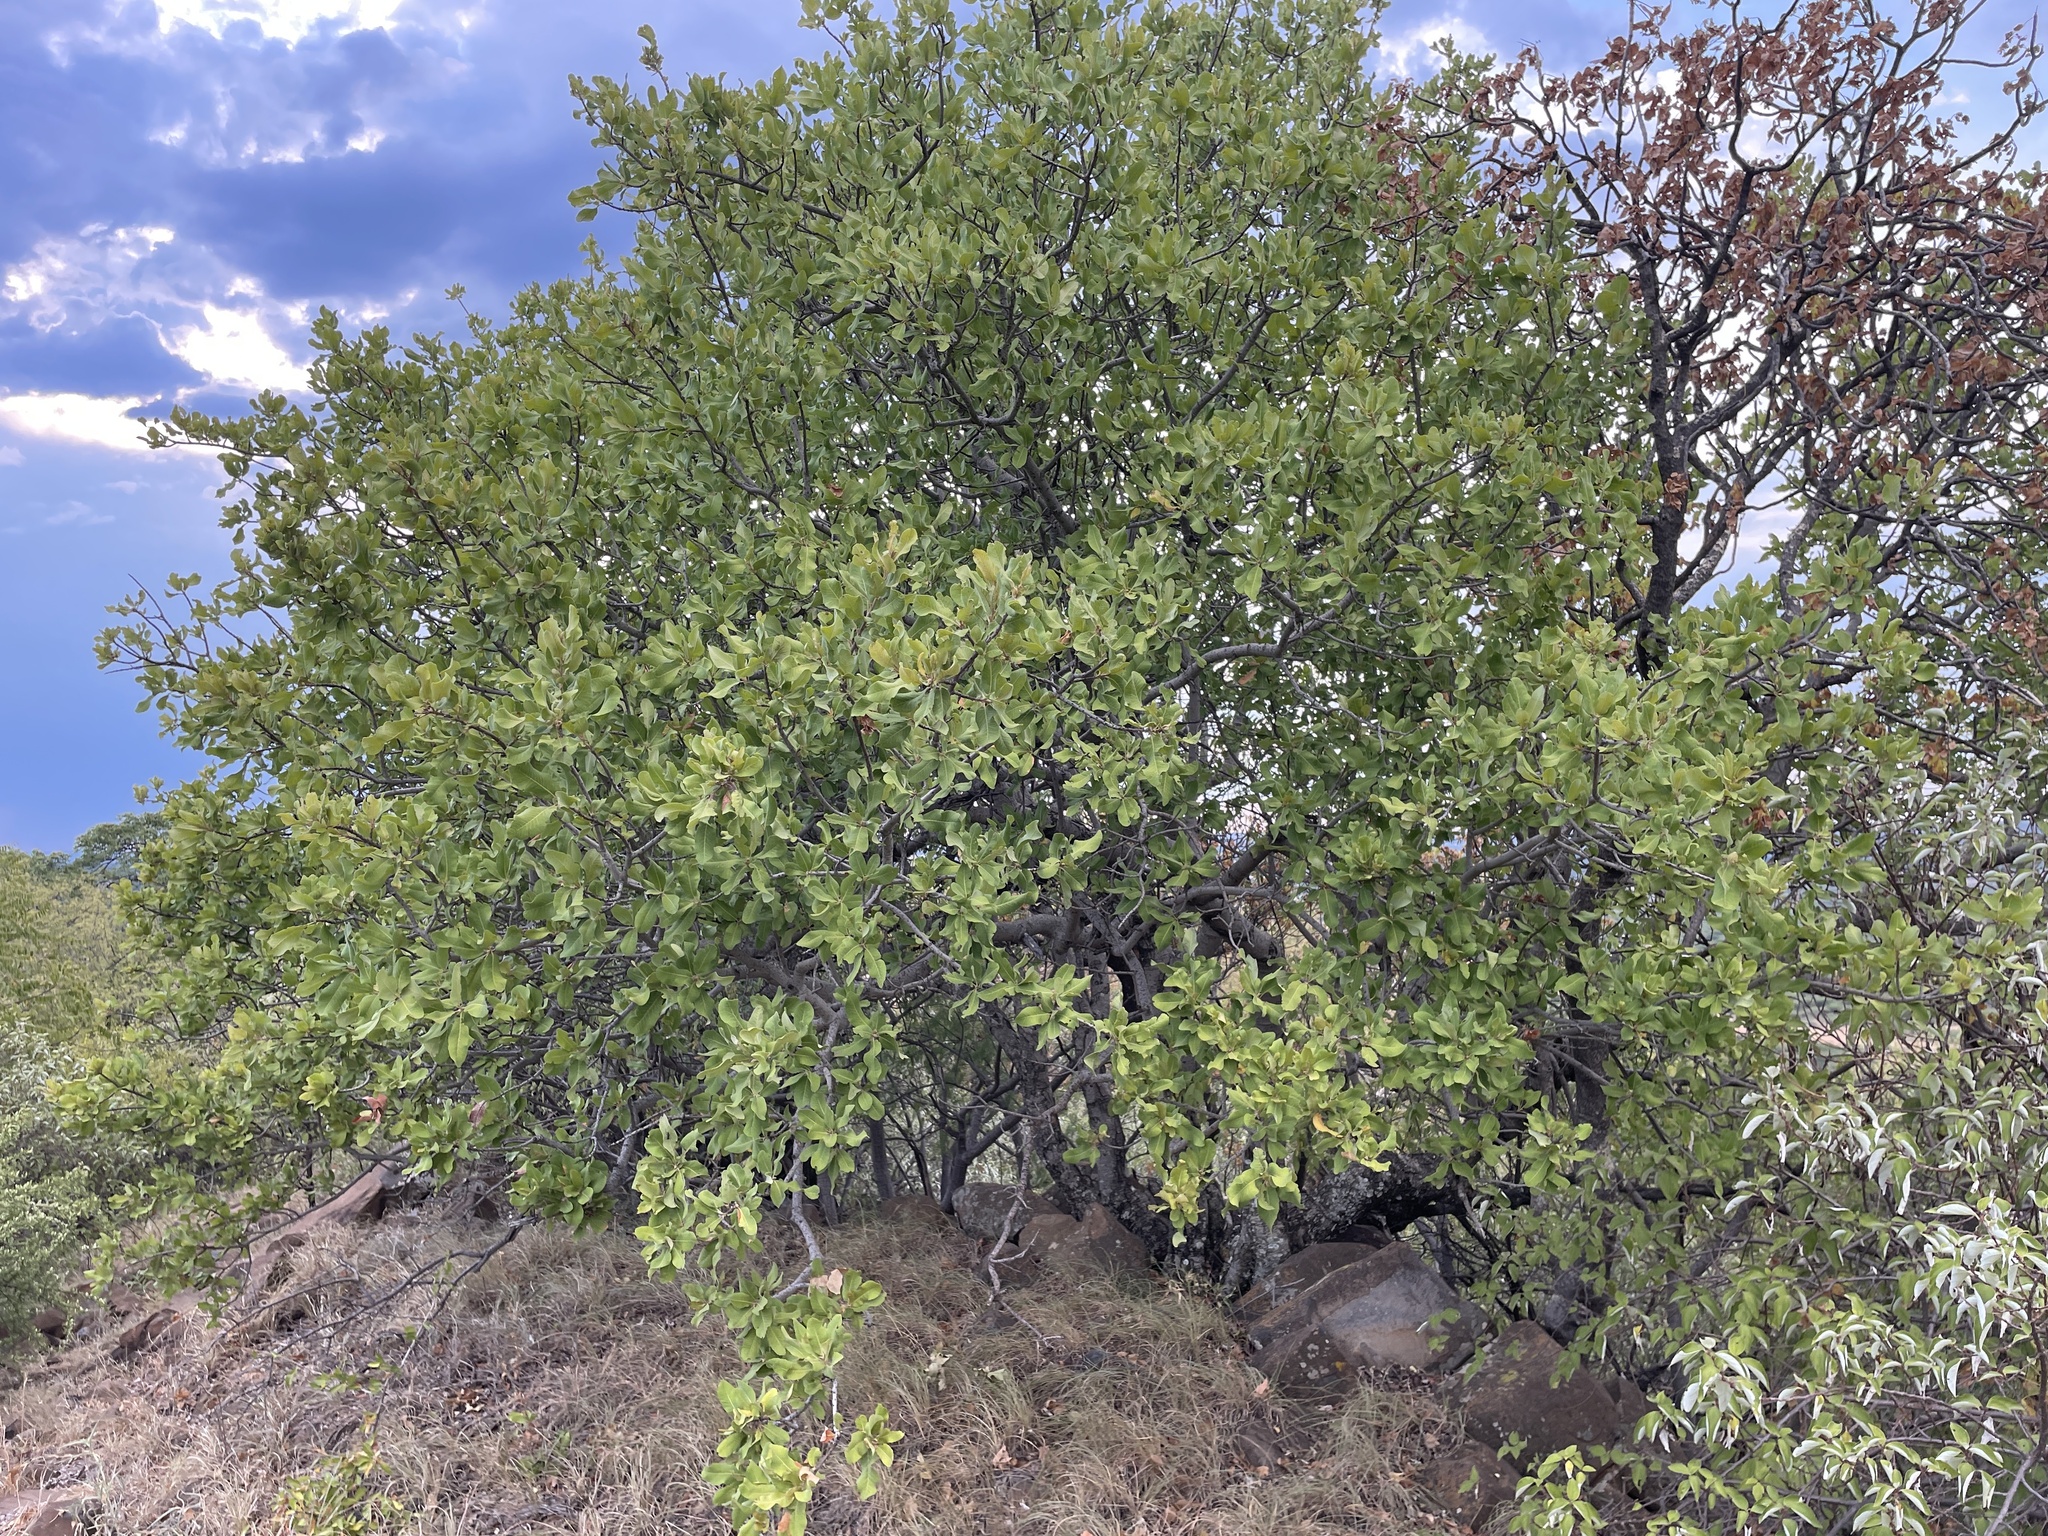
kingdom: Plantae
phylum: Tracheophyta
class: Magnoliopsida
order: Sapindales
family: Sapindaceae
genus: Pappea
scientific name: Pappea capensis
